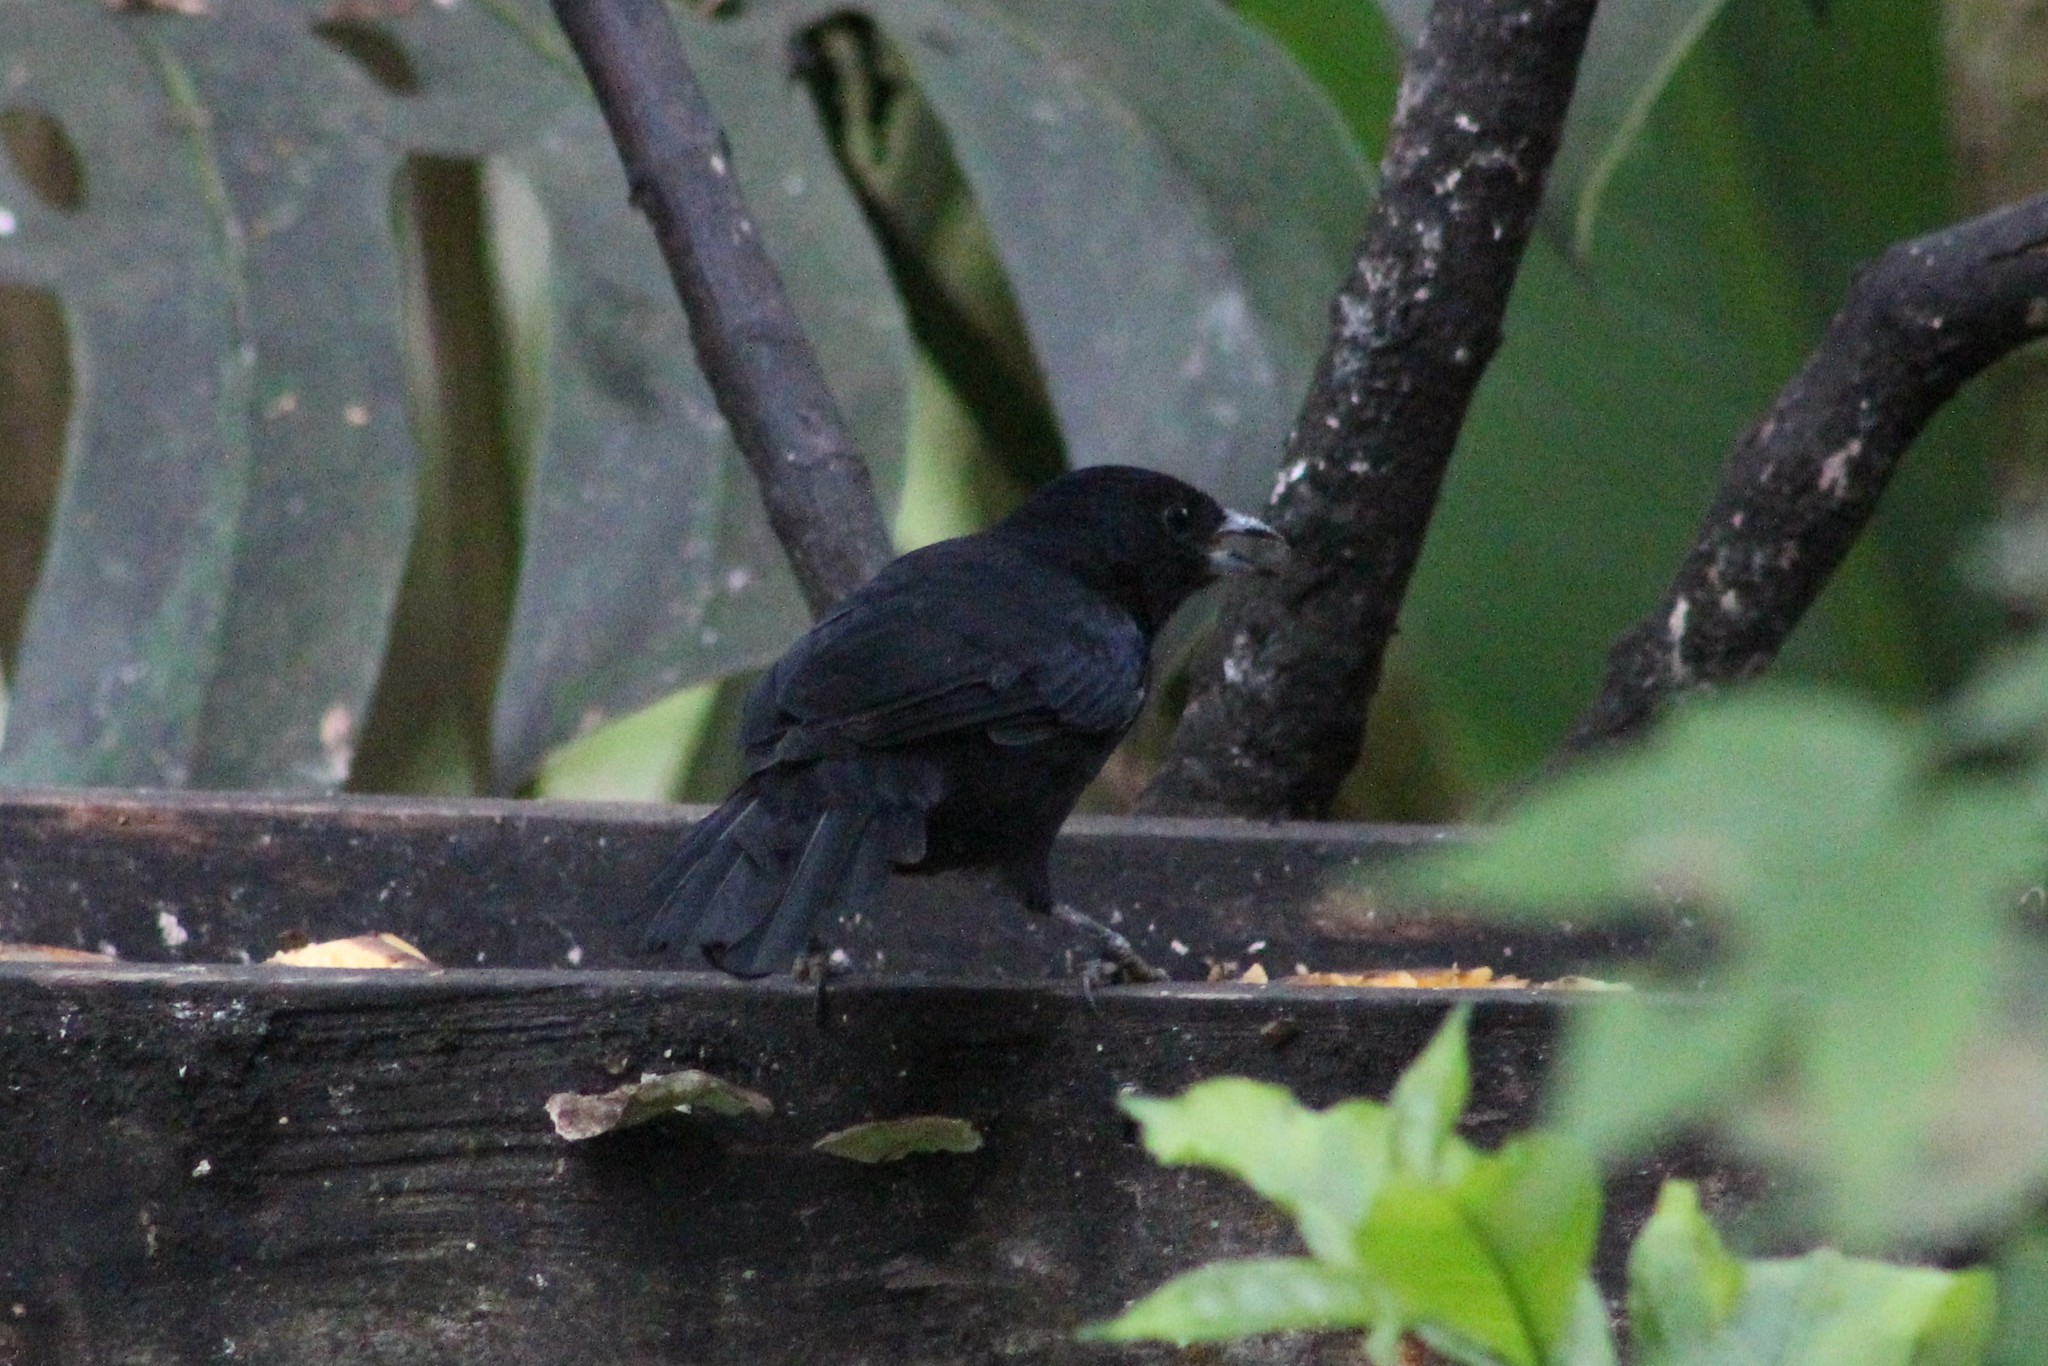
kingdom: Animalia
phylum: Chordata
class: Aves
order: Passeriformes
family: Icteridae
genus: Dives
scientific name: Dives warczewiczi
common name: Scrub blackbird
